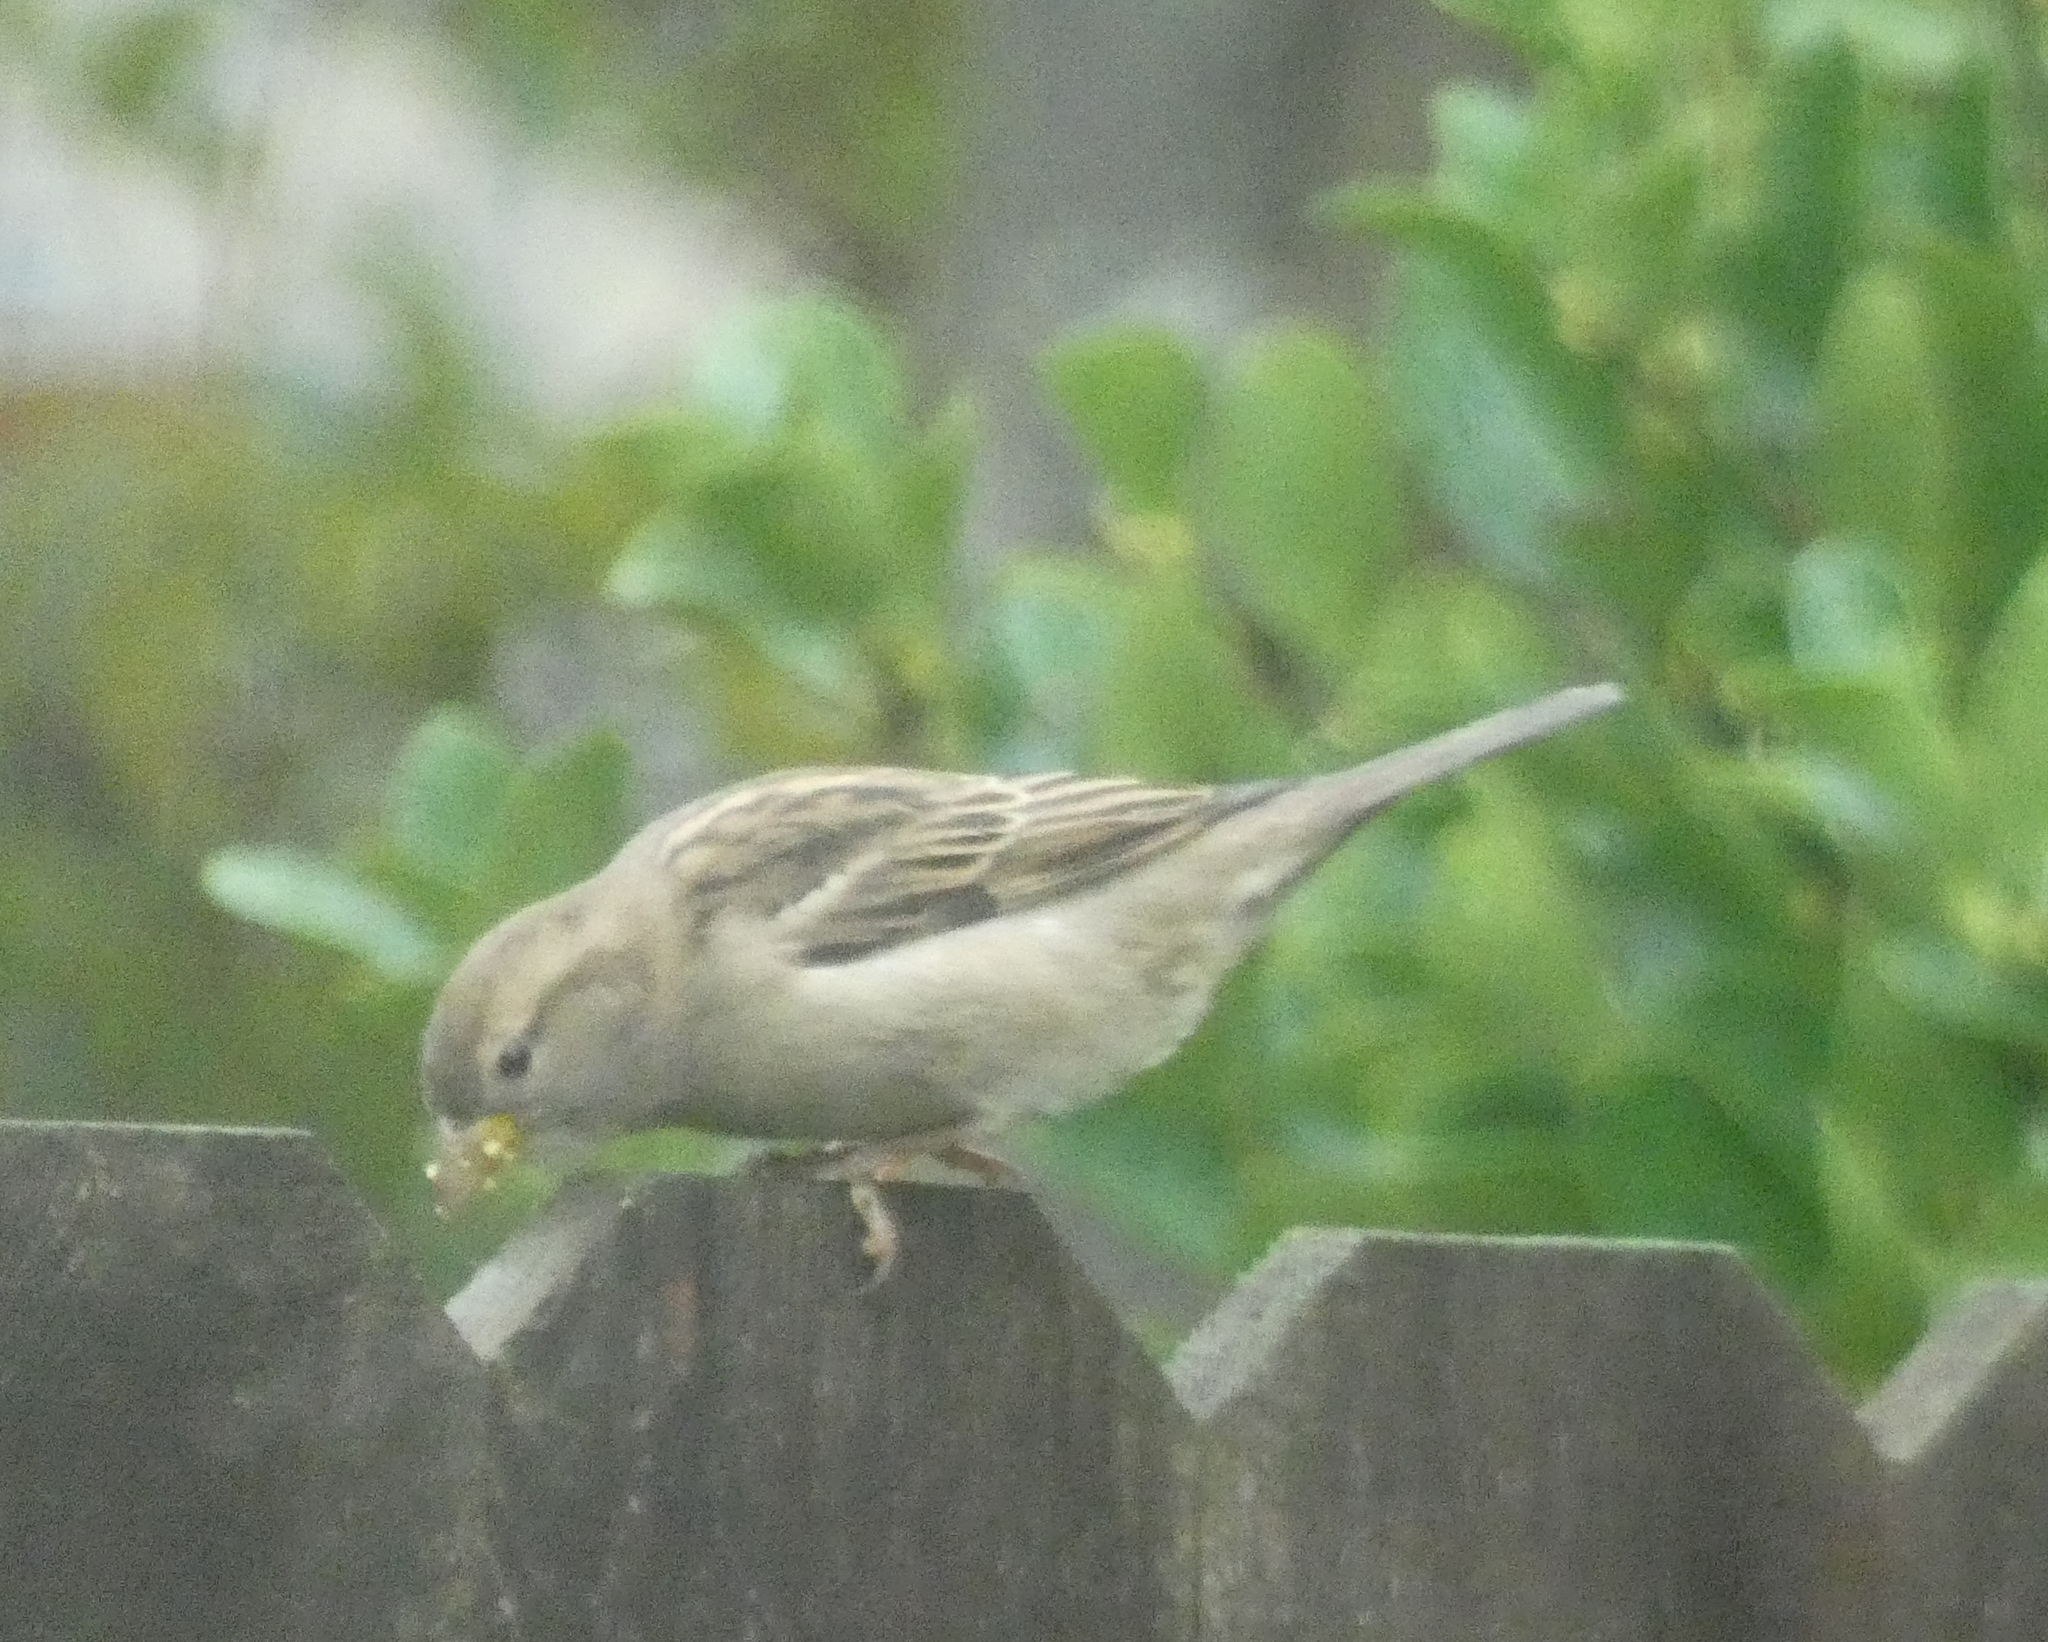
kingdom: Animalia
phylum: Chordata
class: Aves
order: Passeriformes
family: Passeridae
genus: Passer
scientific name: Passer domesticus
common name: House sparrow
